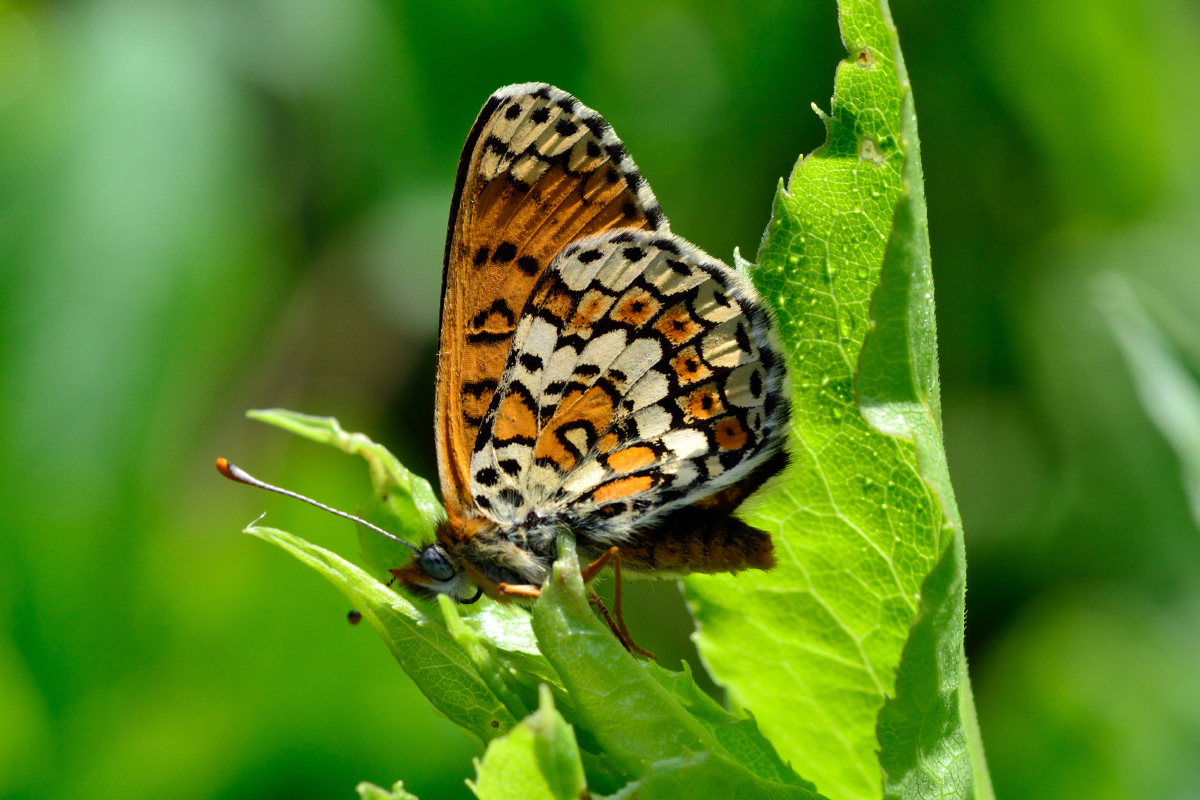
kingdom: Animalia
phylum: Arthropoda
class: Insecta
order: Lepidoptera
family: Nymphalidae
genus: Melitaea
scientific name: Melitaea cinxia
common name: Glanville fritillary
